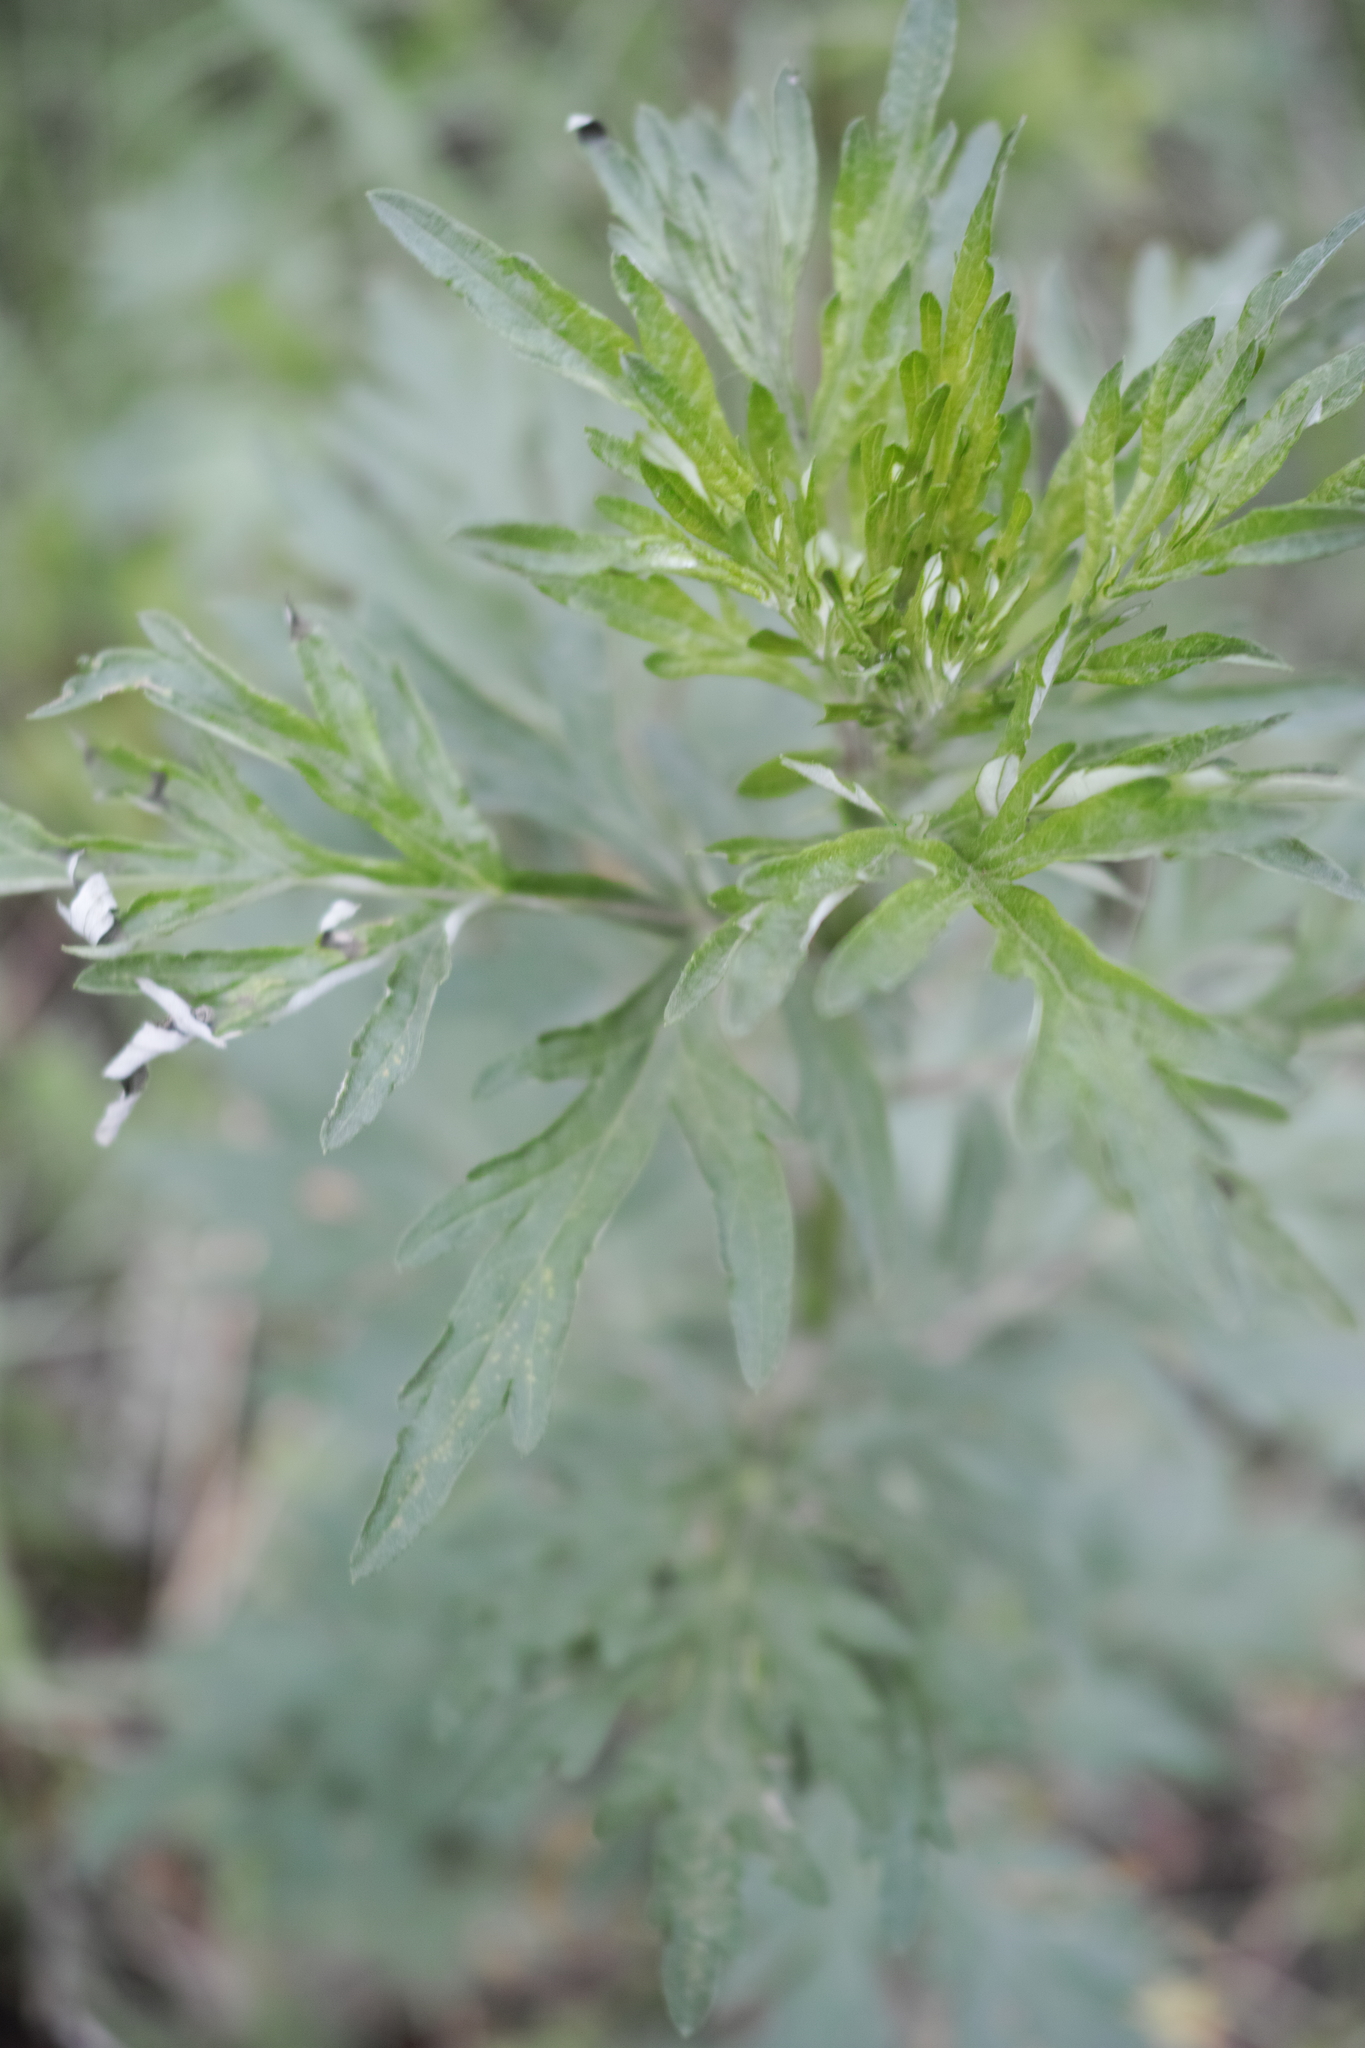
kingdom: Plantae
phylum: Tracheophyta
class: Magnoliopsida
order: Asterales
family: Asteraceae
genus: Artemisia
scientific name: Artemisia vulgaris
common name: Mugwort
